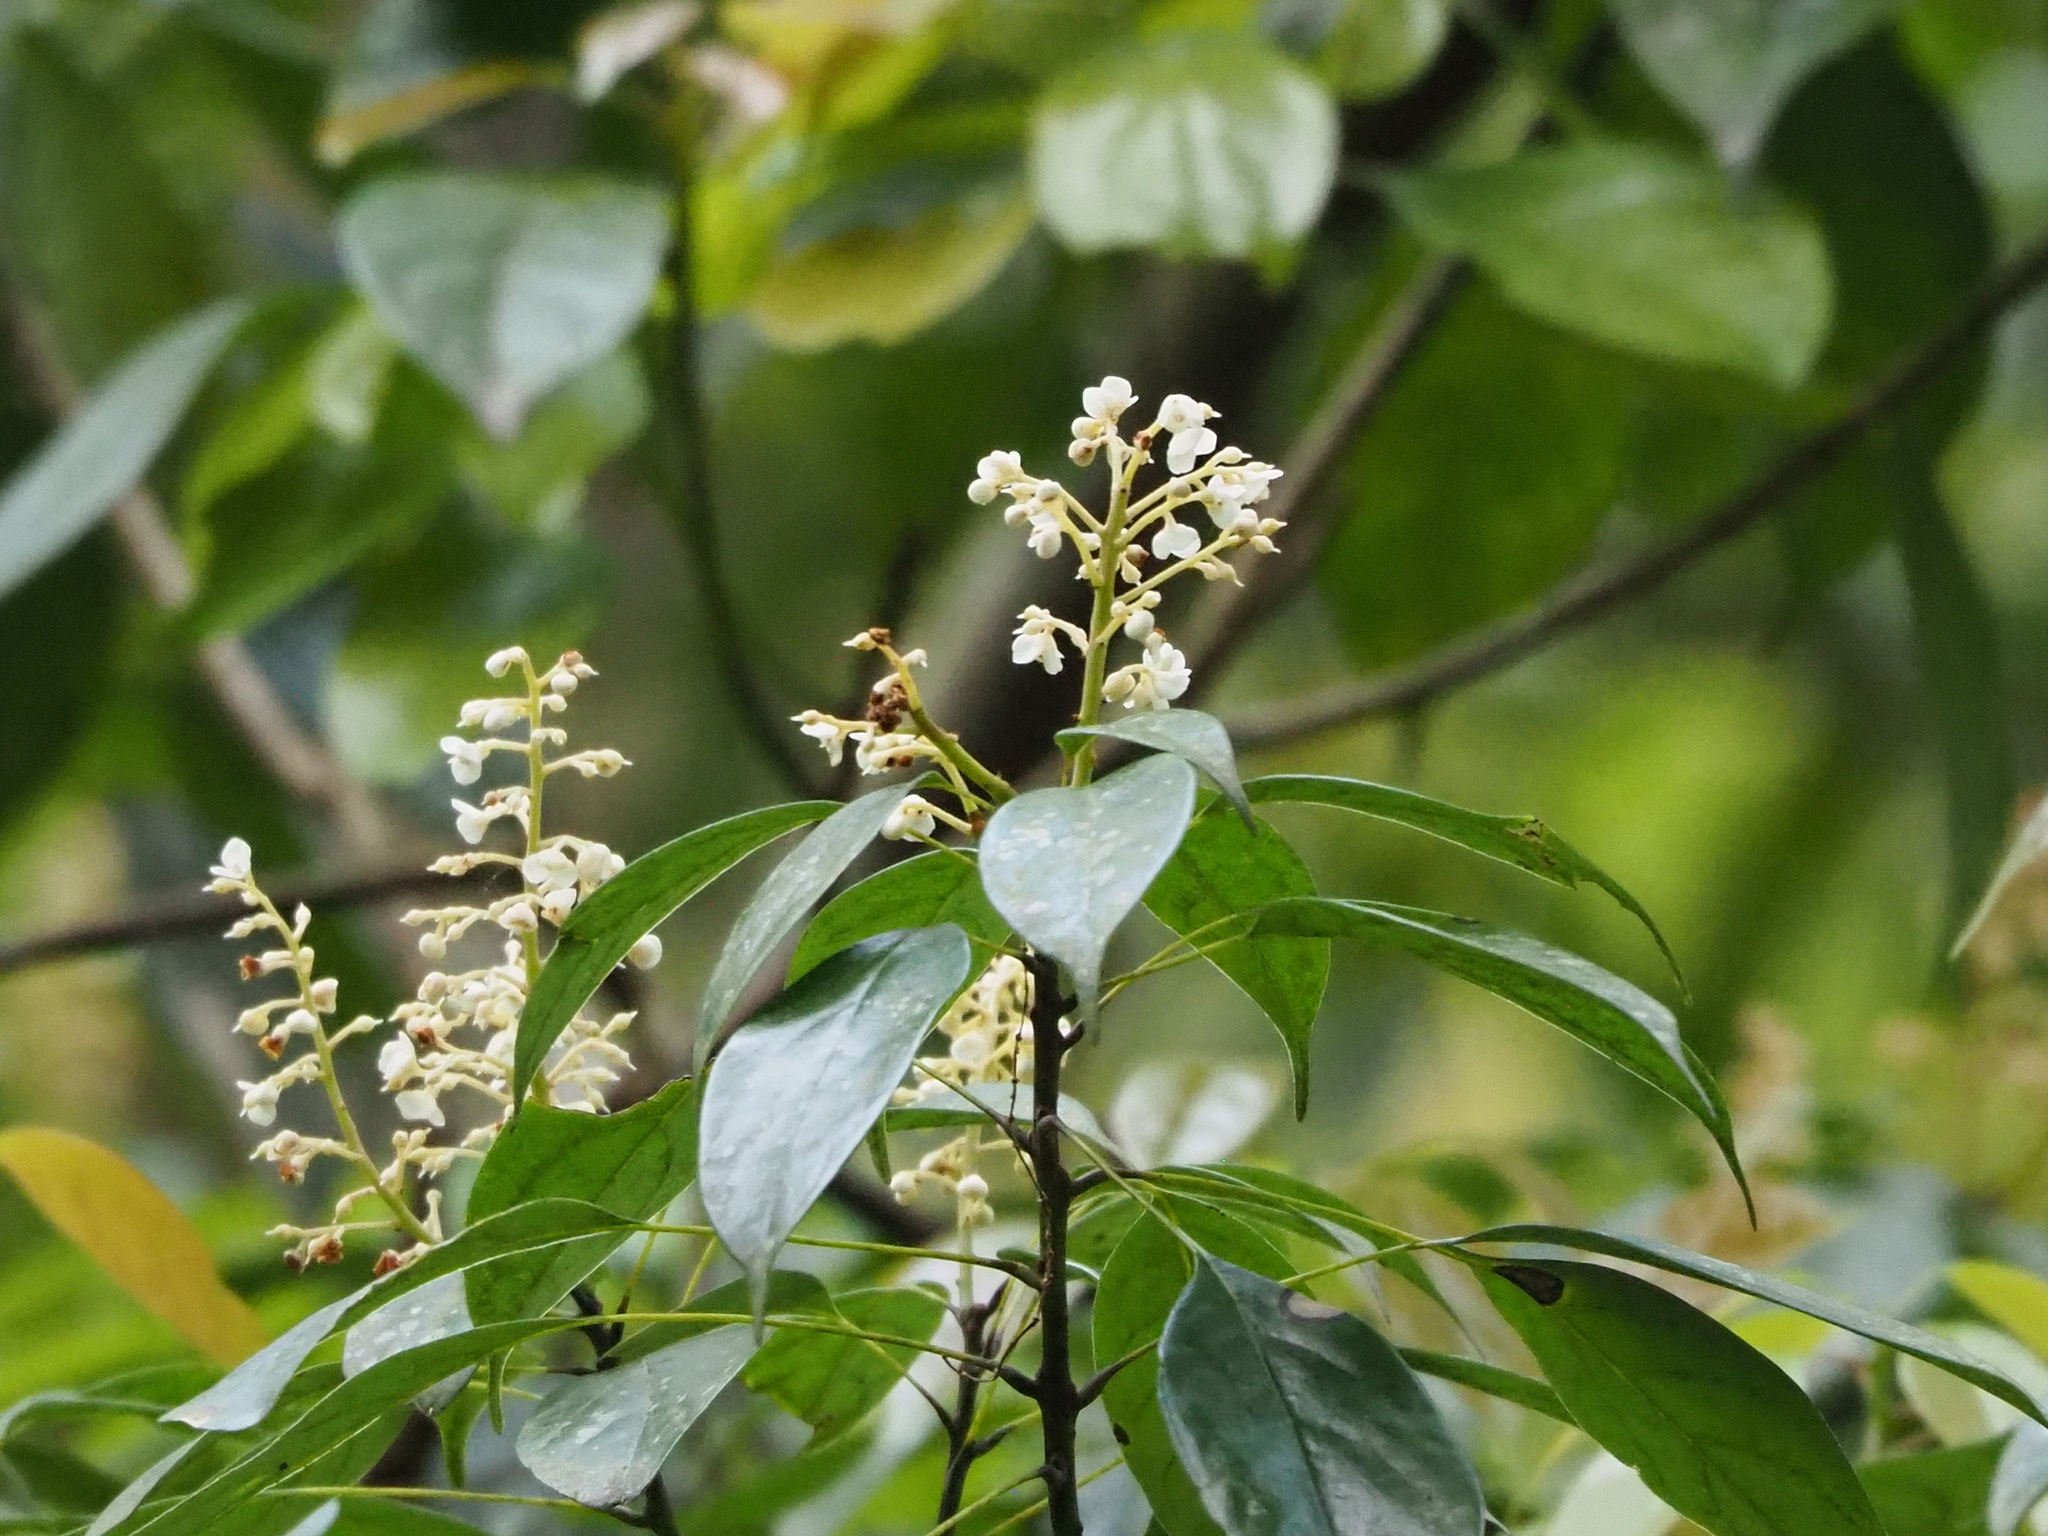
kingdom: Plantae
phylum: Tracheophyta
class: Magnoliopsida
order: Proteales
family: Sabiaceae
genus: Meliosma
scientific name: Meliosma squamulata
